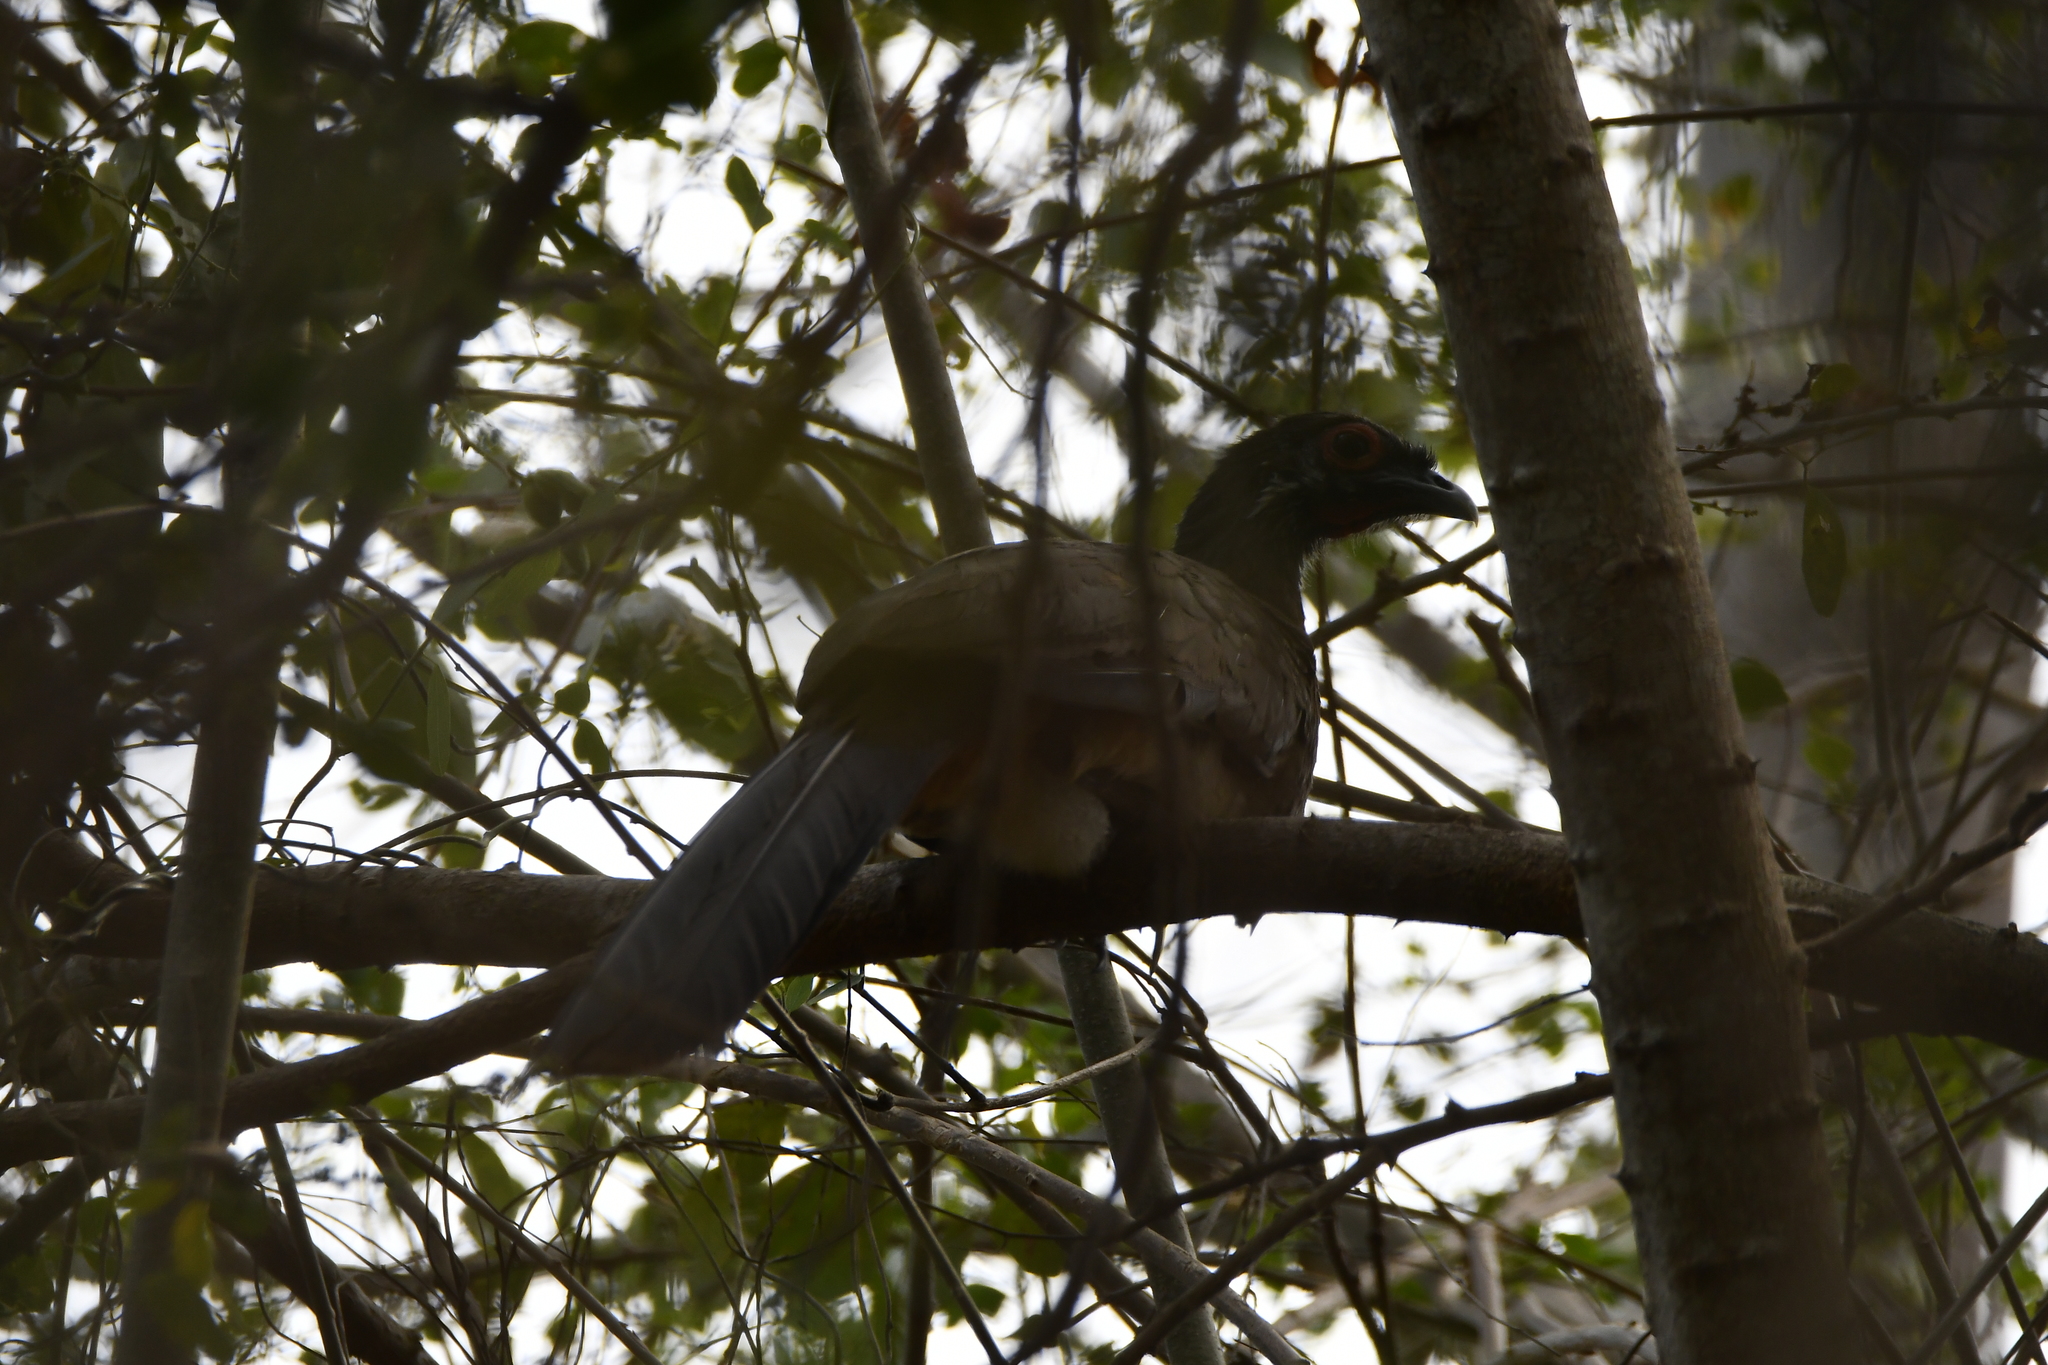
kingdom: Animalia
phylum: Chordata
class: Aves
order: Galliformes
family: Cracidae
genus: Ortalis
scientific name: Ortalis poliocephala
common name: West mexican chachalaca
